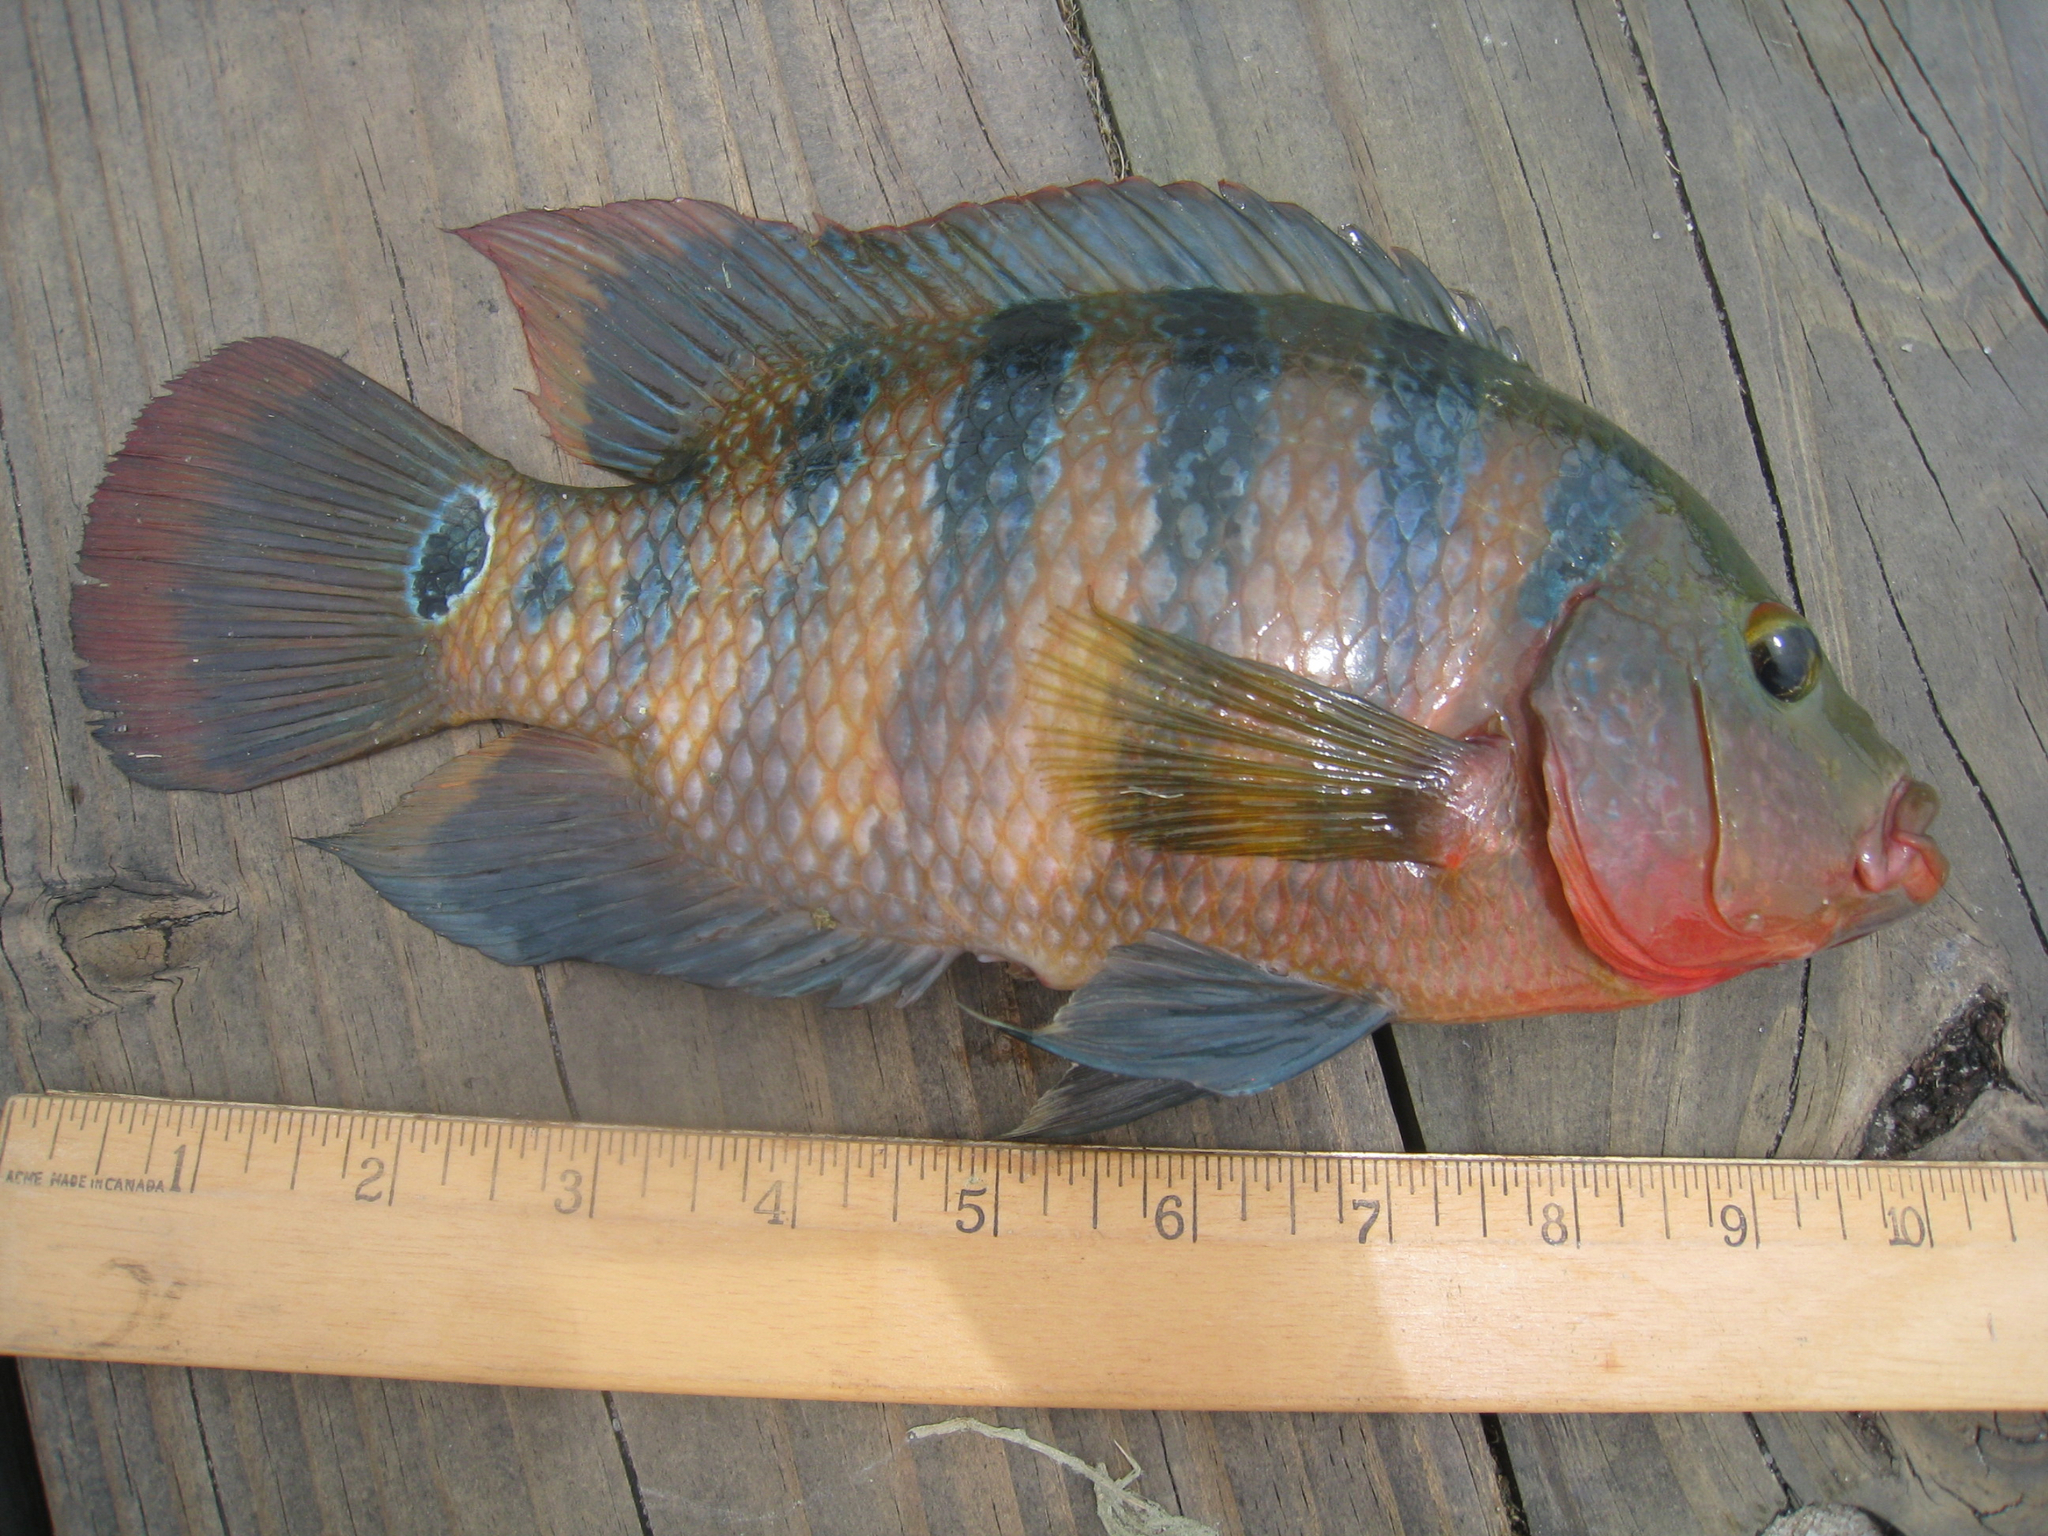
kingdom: Animalia
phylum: Chordata
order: Perciformes
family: Cichlidae
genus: Mayaheros
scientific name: Mayaheros urophthalmus
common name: Mayan cichlid
